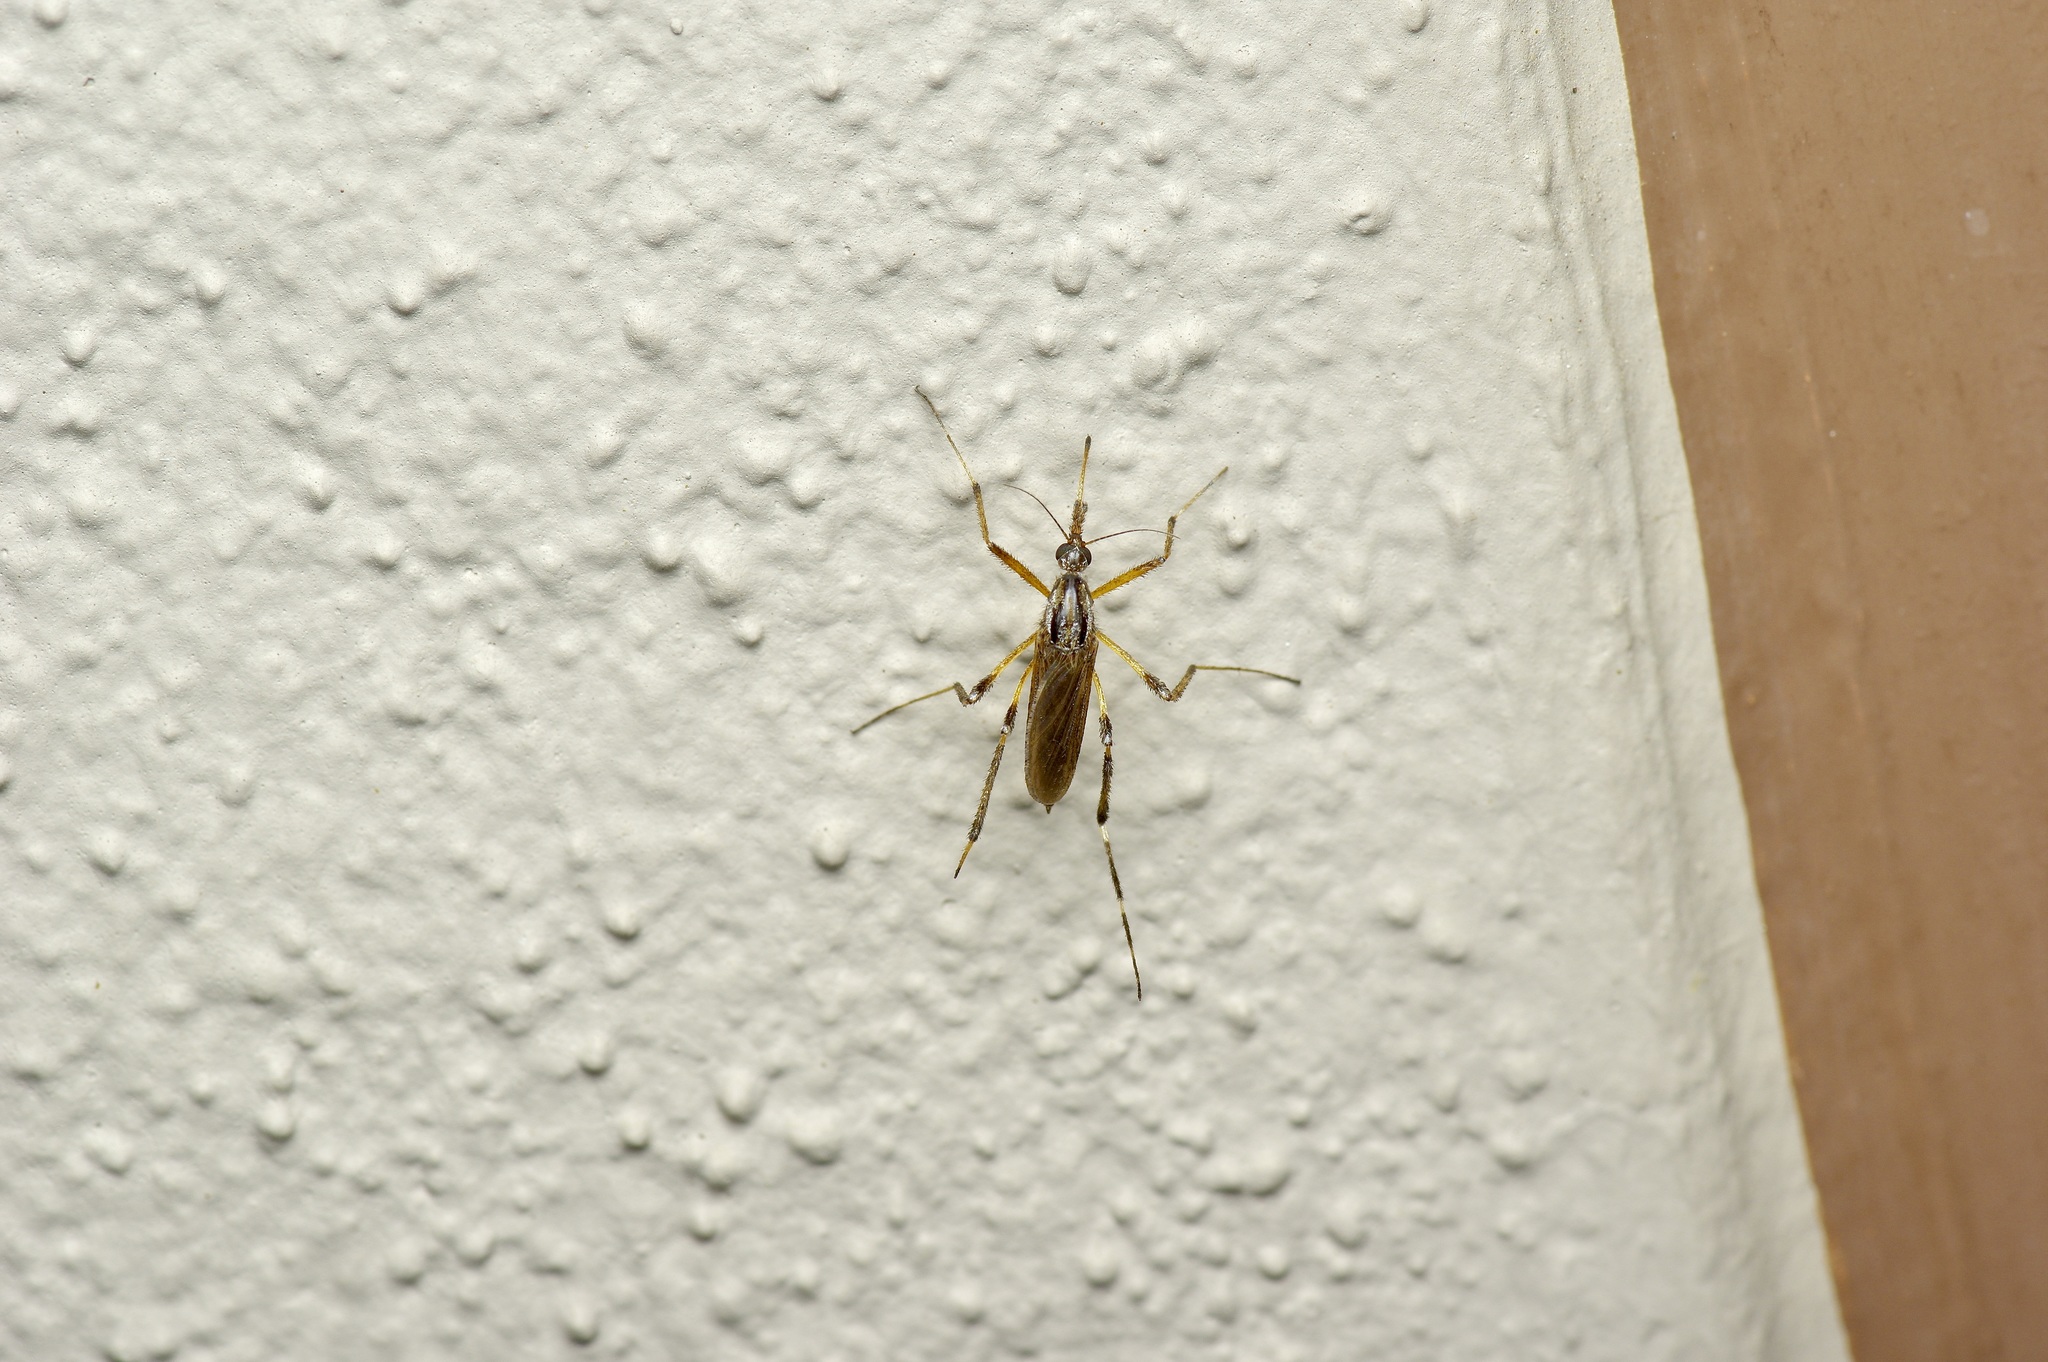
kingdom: Animalia
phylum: Arthropoda
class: Insecta
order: Diptera
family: Culicidae
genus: Psorophora
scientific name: Psorophora ciliata
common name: Gallinipper
